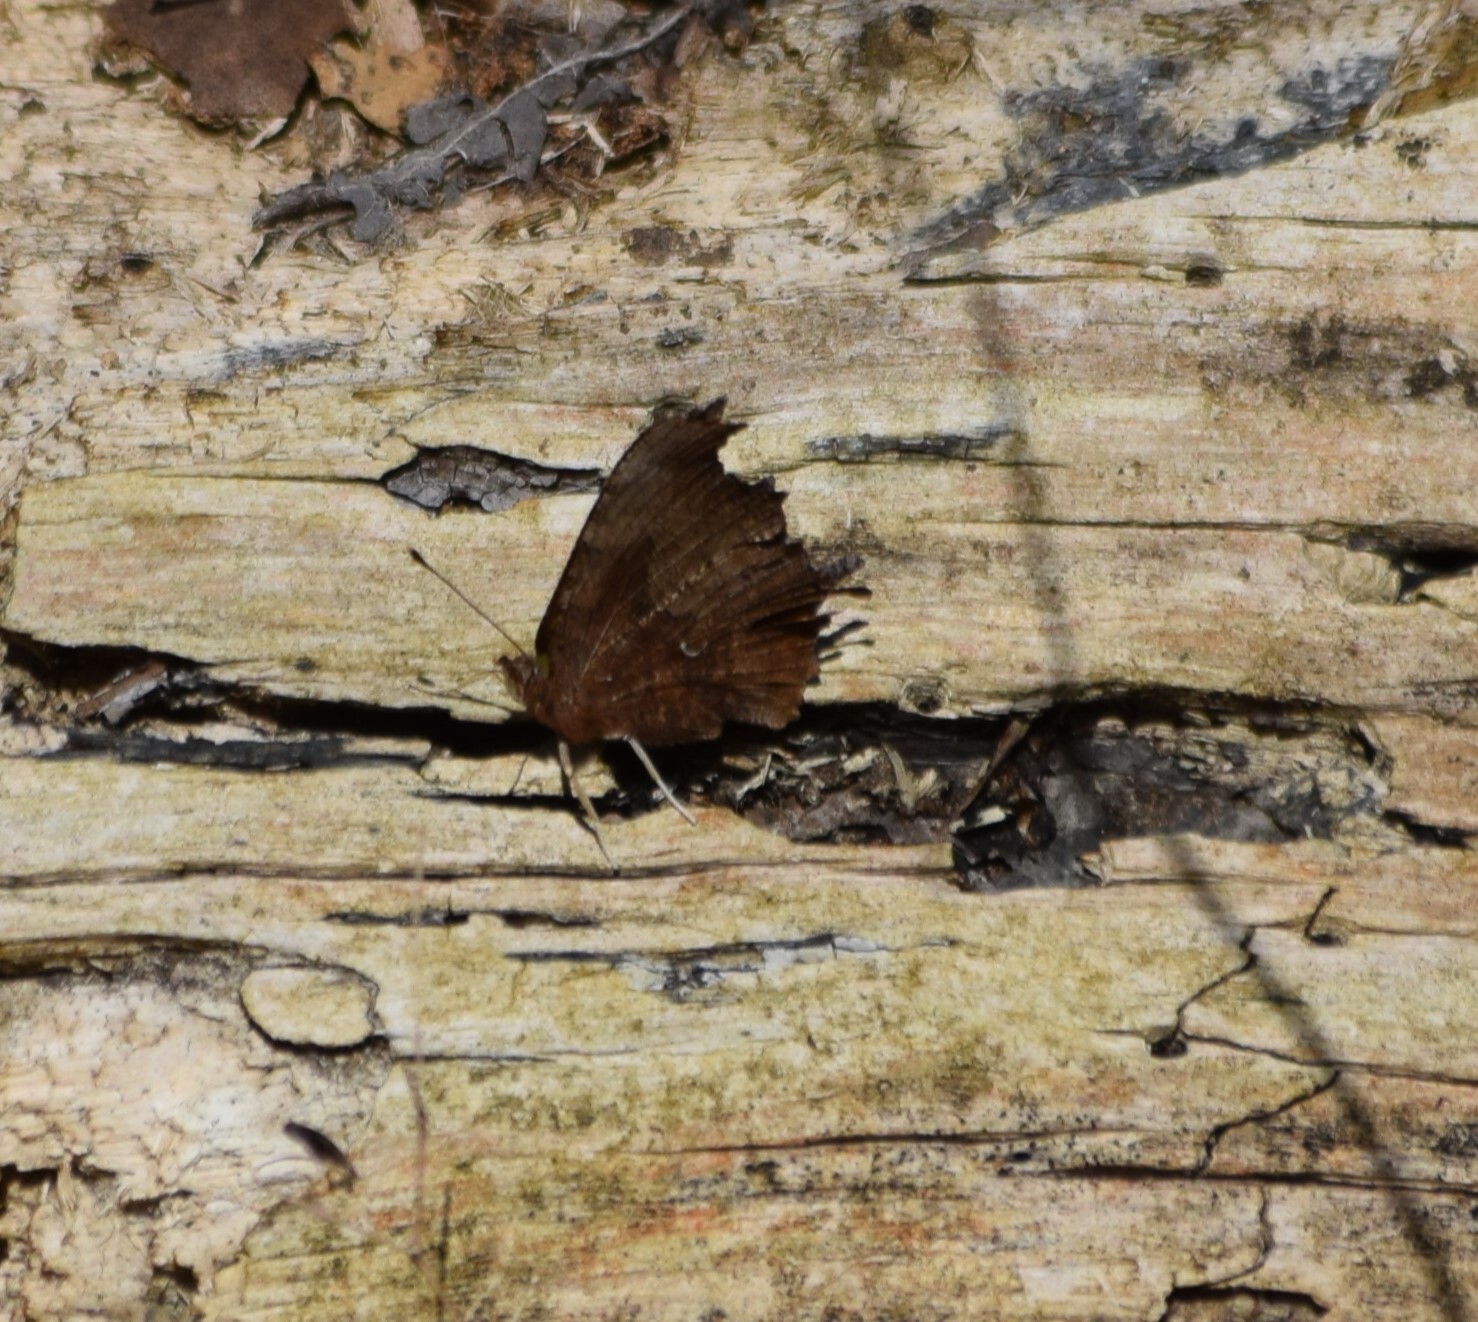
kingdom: Animalia
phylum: Arthropoda
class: Insecta
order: Lepidoptera
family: Nymphalidae
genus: Polygonia
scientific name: Polygonia comma
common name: Eastern comma
